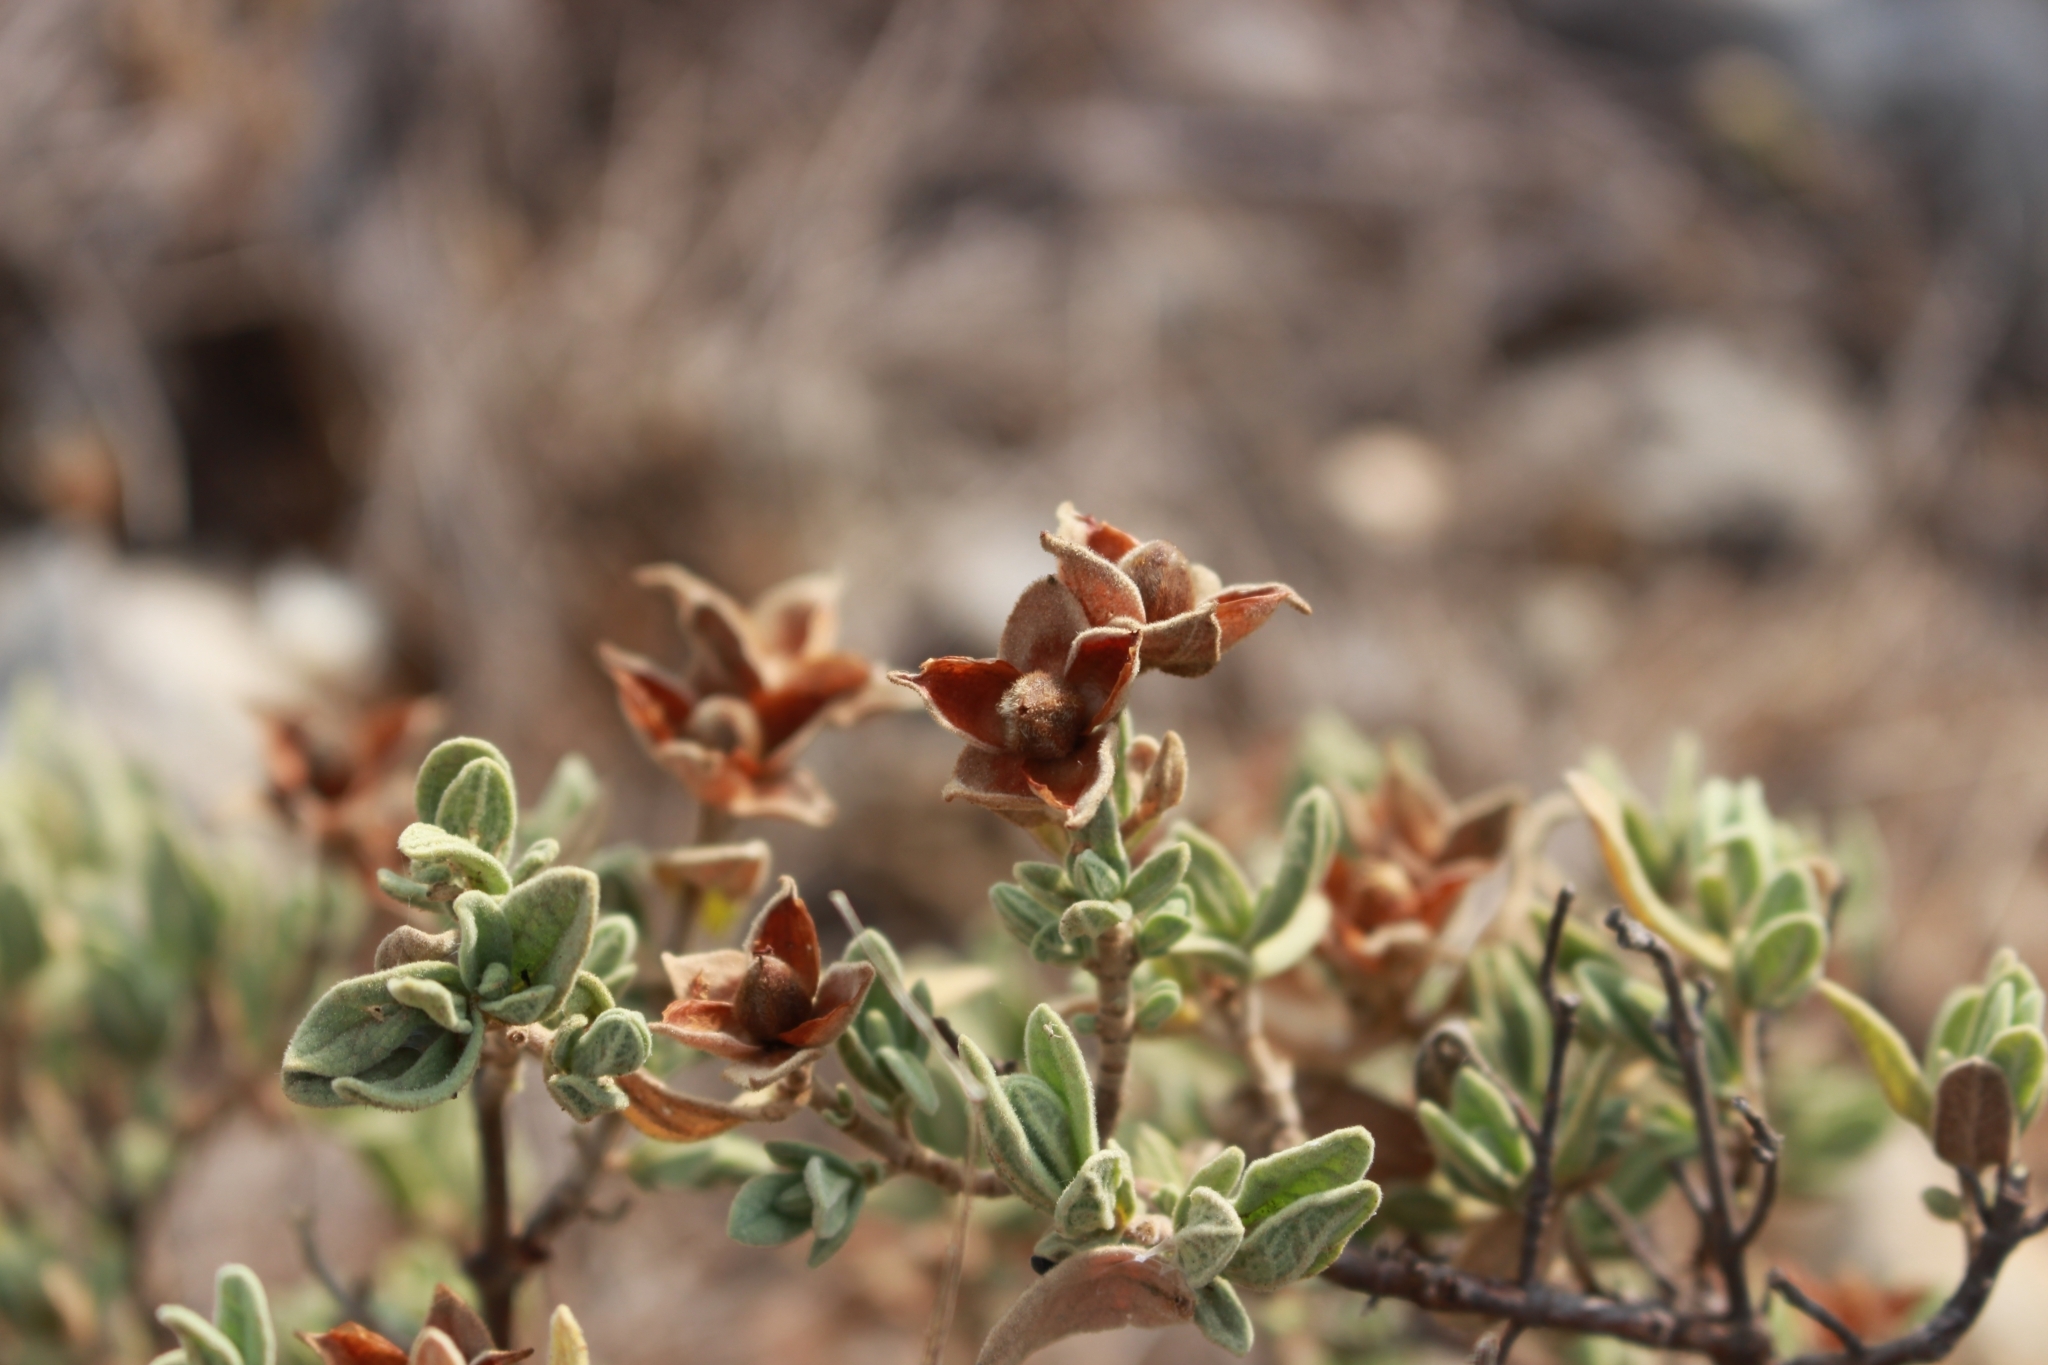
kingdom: Plantae
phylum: Tracheophyta
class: Magnoliopsida
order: Malvales
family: Cistaceae
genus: Cistus
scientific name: Cistus albidus
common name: White-leaf rock-rose
